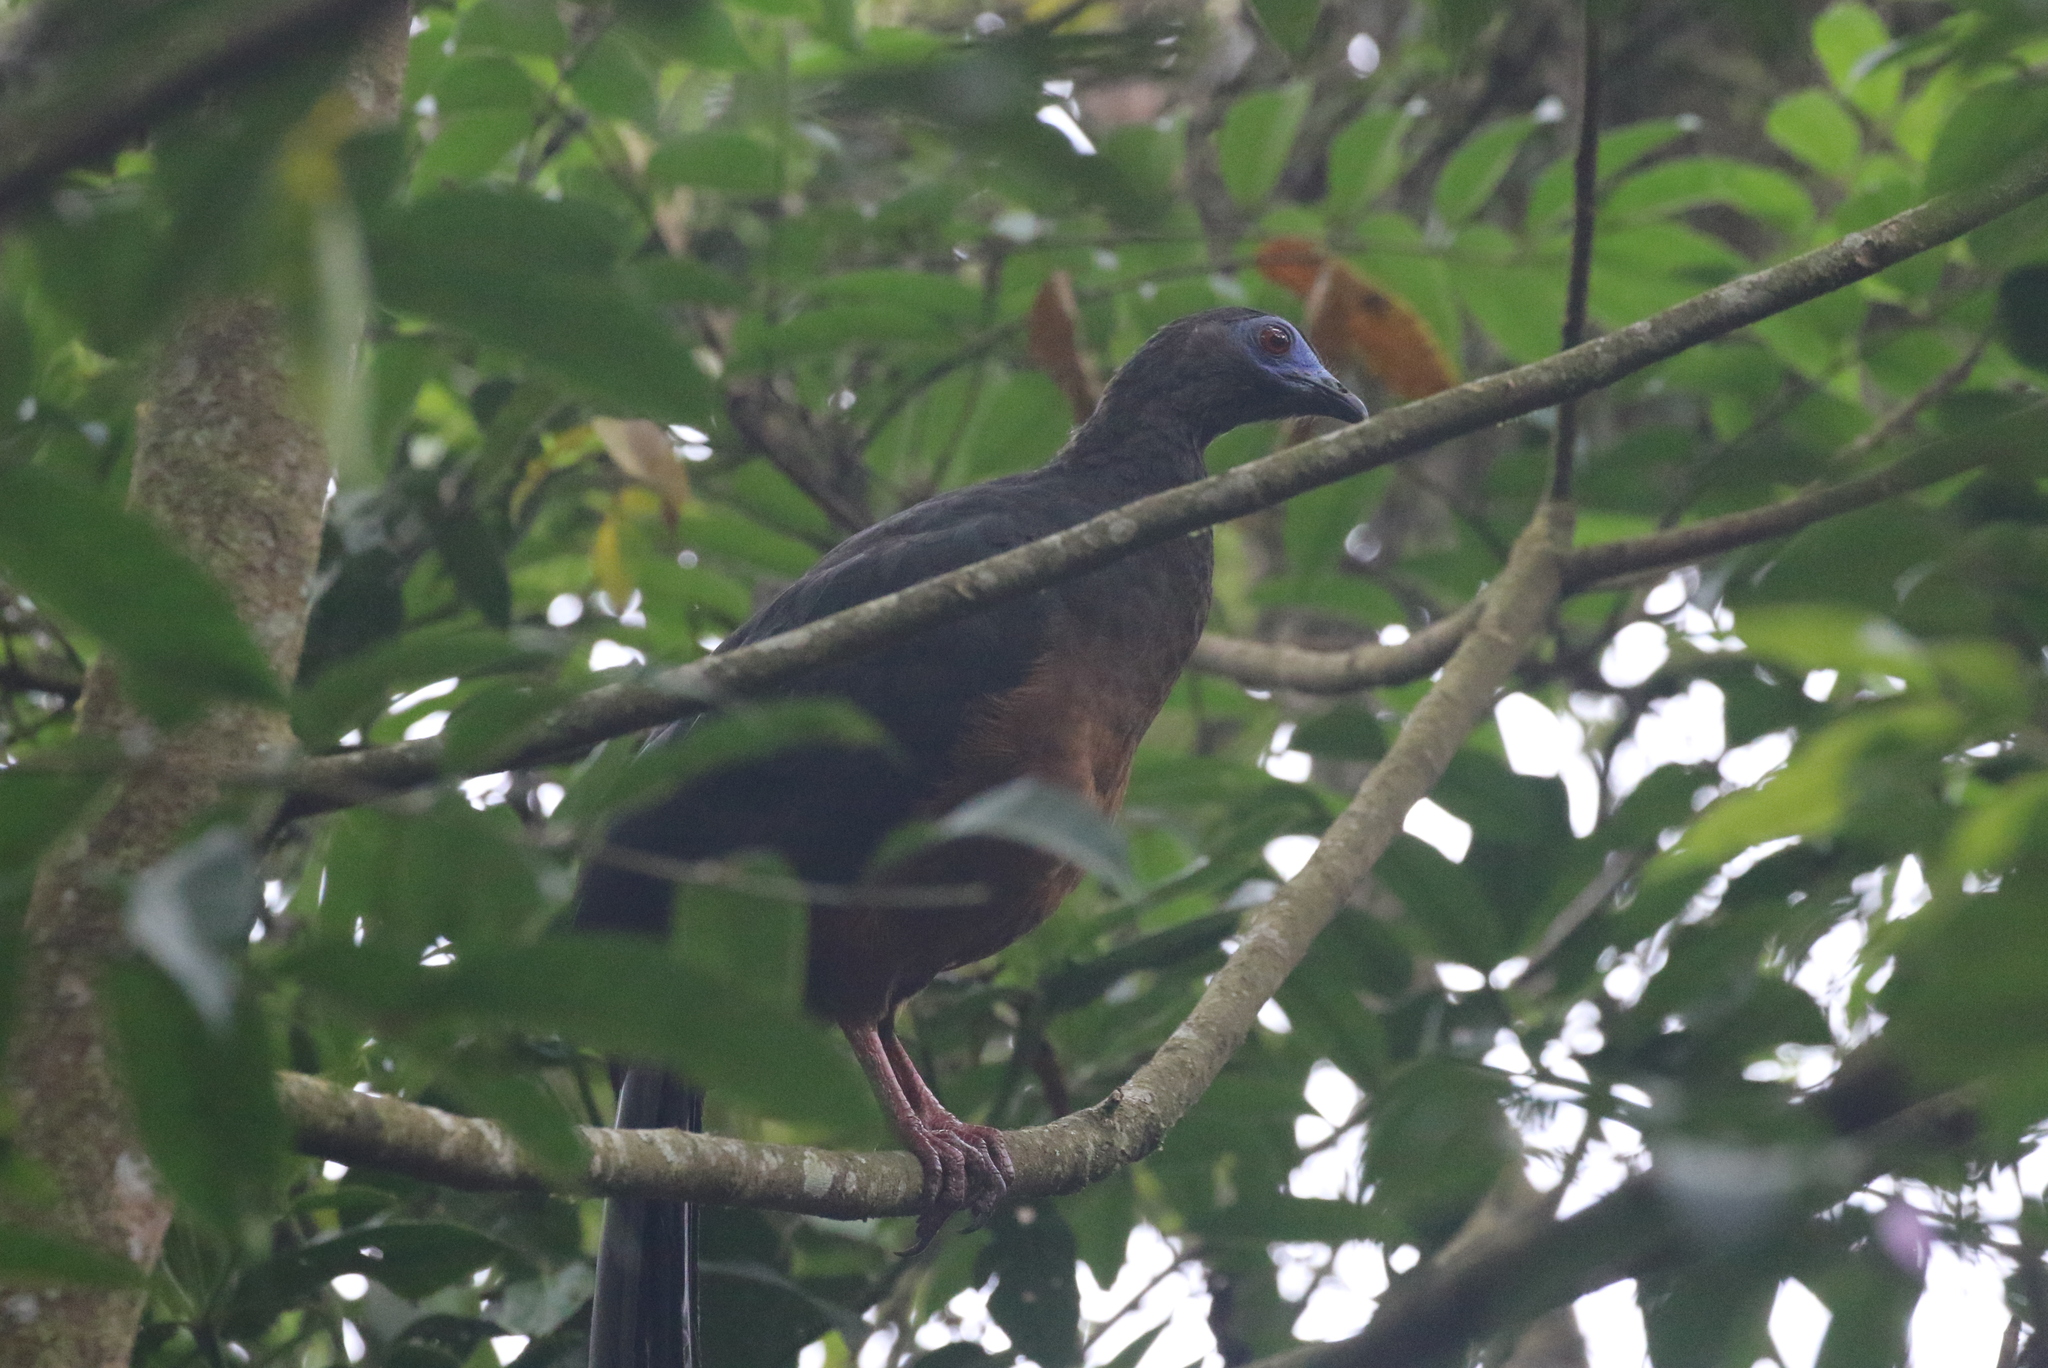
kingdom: Animalia
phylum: Chordata
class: Aves
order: Galliformes
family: Cracidae
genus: Chamaepetes
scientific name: Chamaepetes goudotii
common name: Sickle-winged guan
